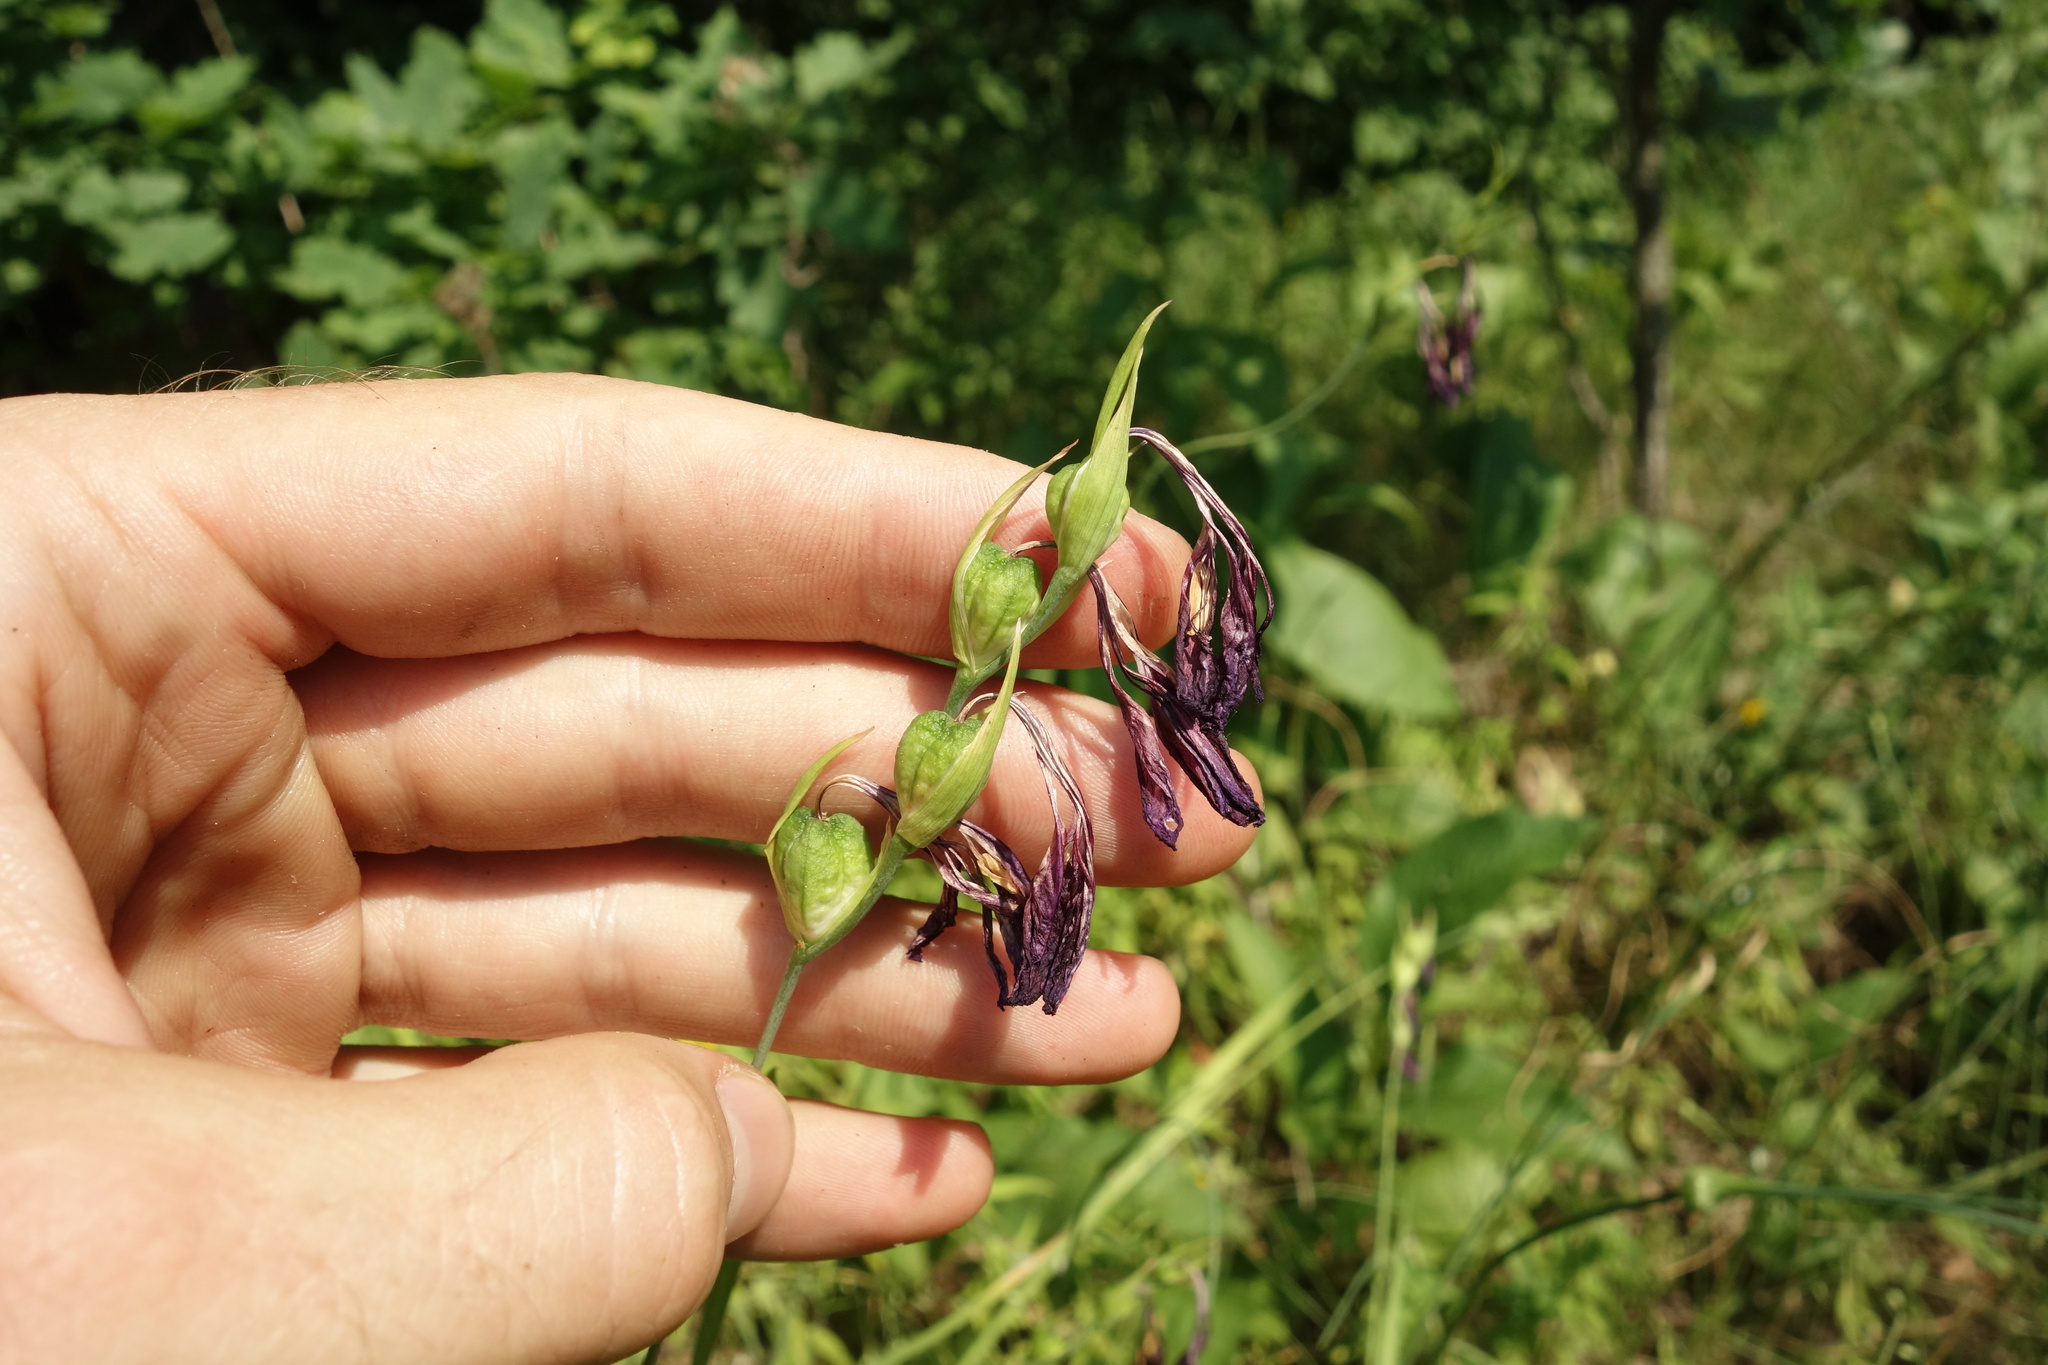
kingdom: Plantae
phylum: Tracheophyta
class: Liliopsida
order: Asparagales
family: Iridaceae
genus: Gladiolus
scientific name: Gladiolus tenuis
